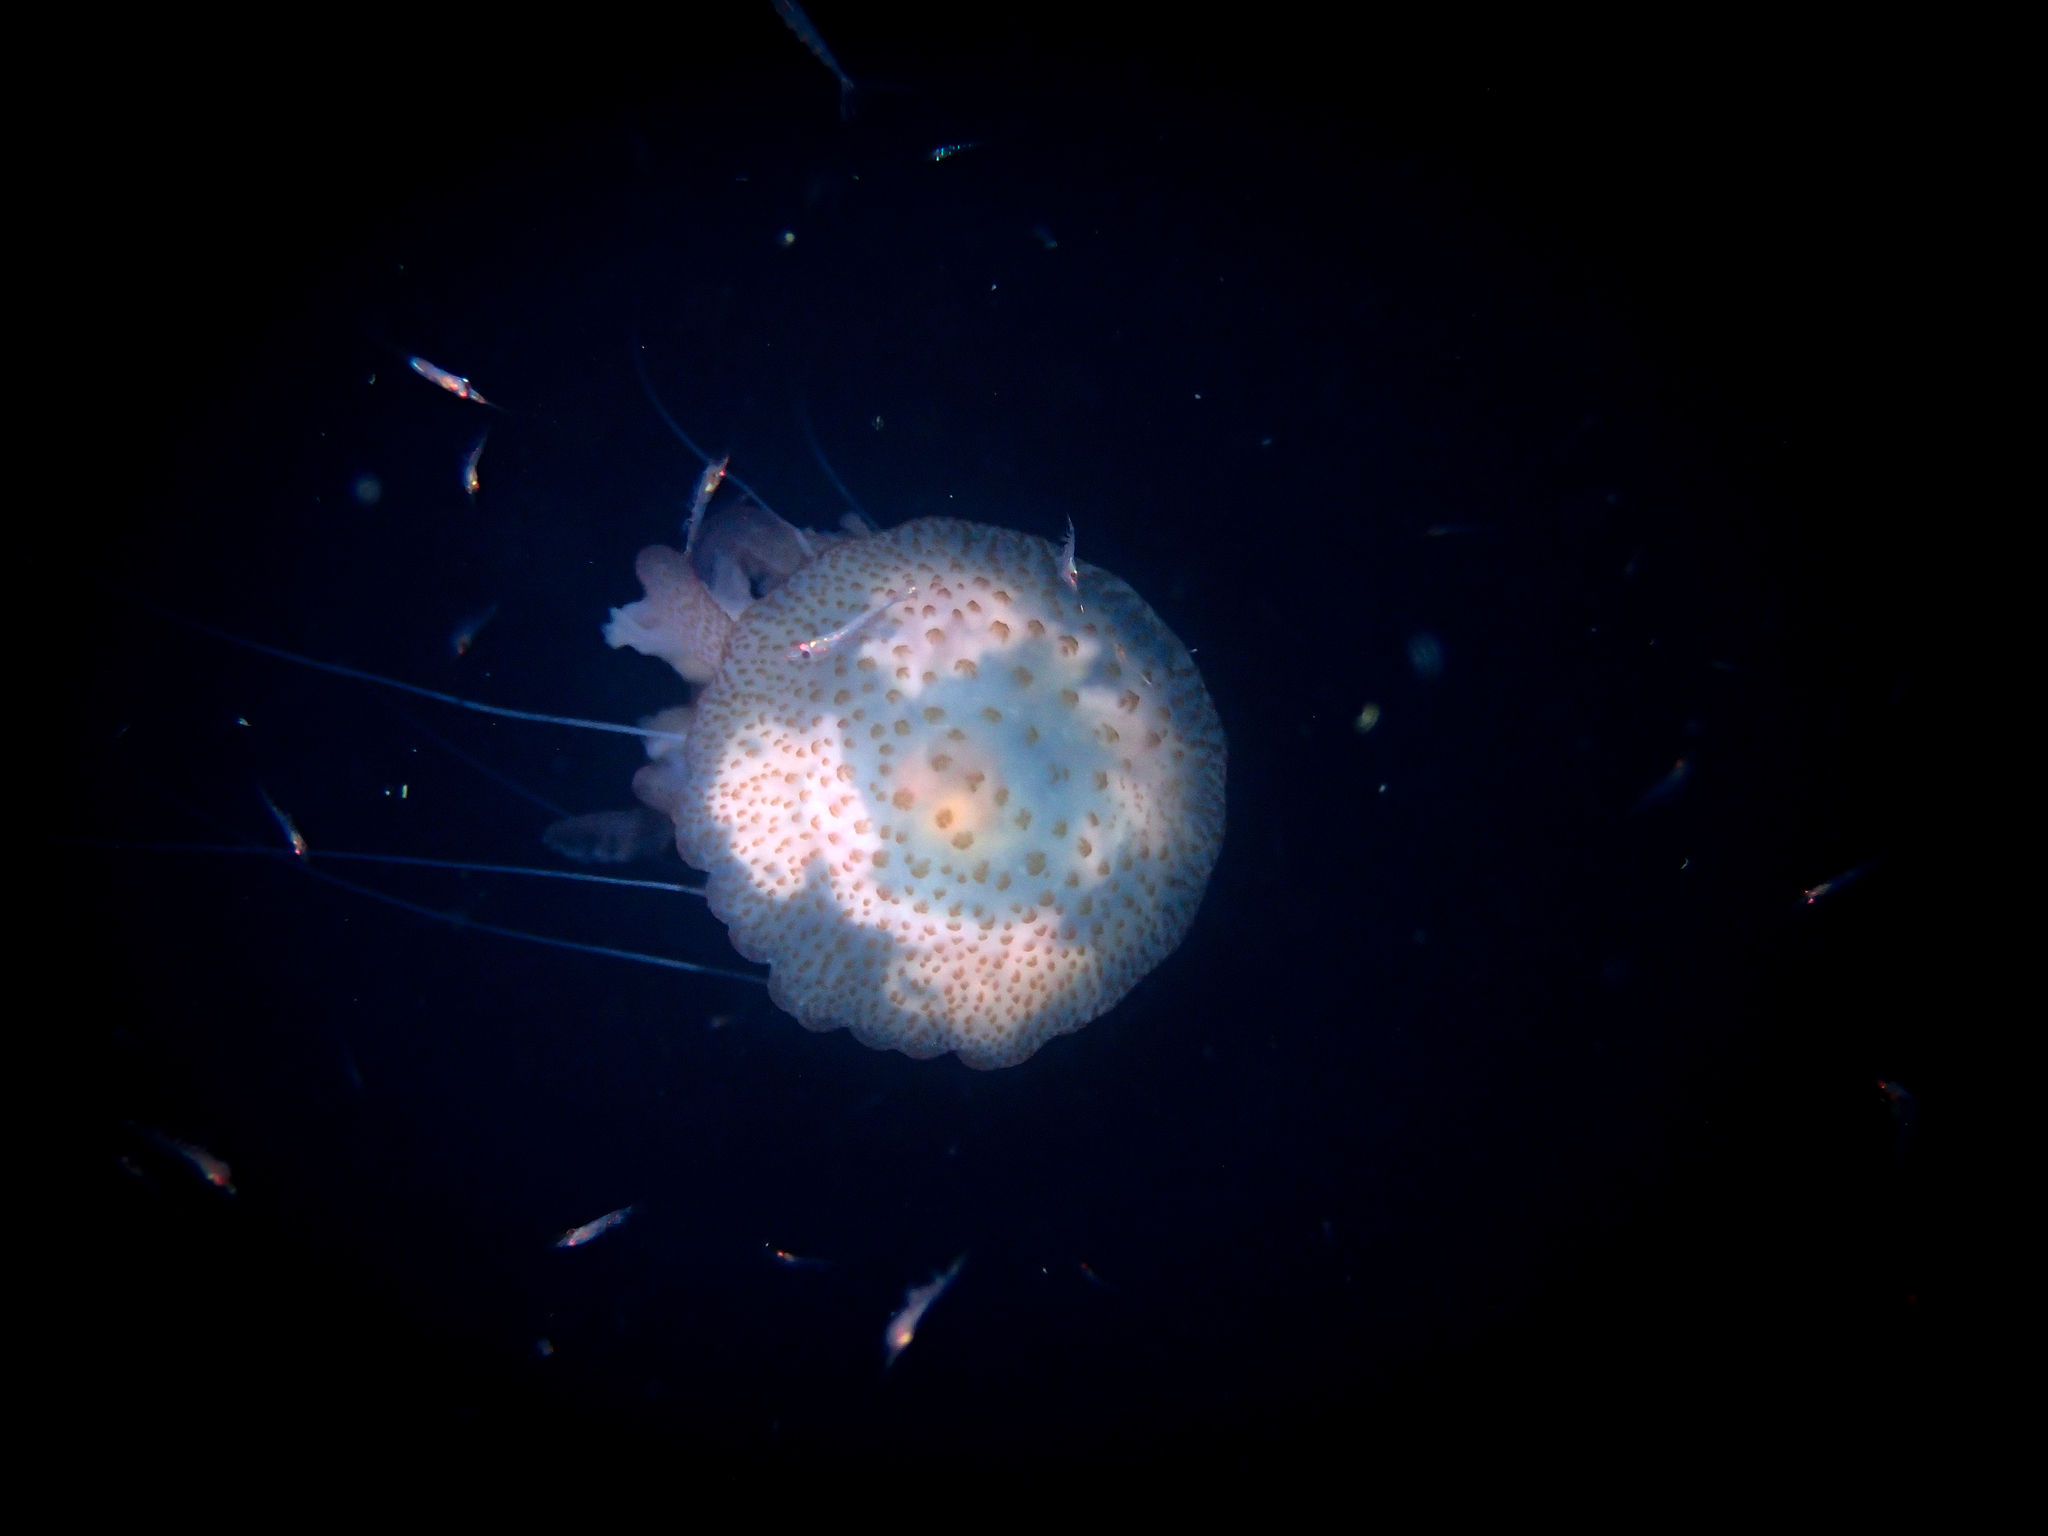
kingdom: Animalia
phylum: Cnidaria
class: Scyphozoa
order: Semaeostomeae
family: Pelagiidae
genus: Pelagia
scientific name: Pelagia noctiluca
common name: Mauve stinger
